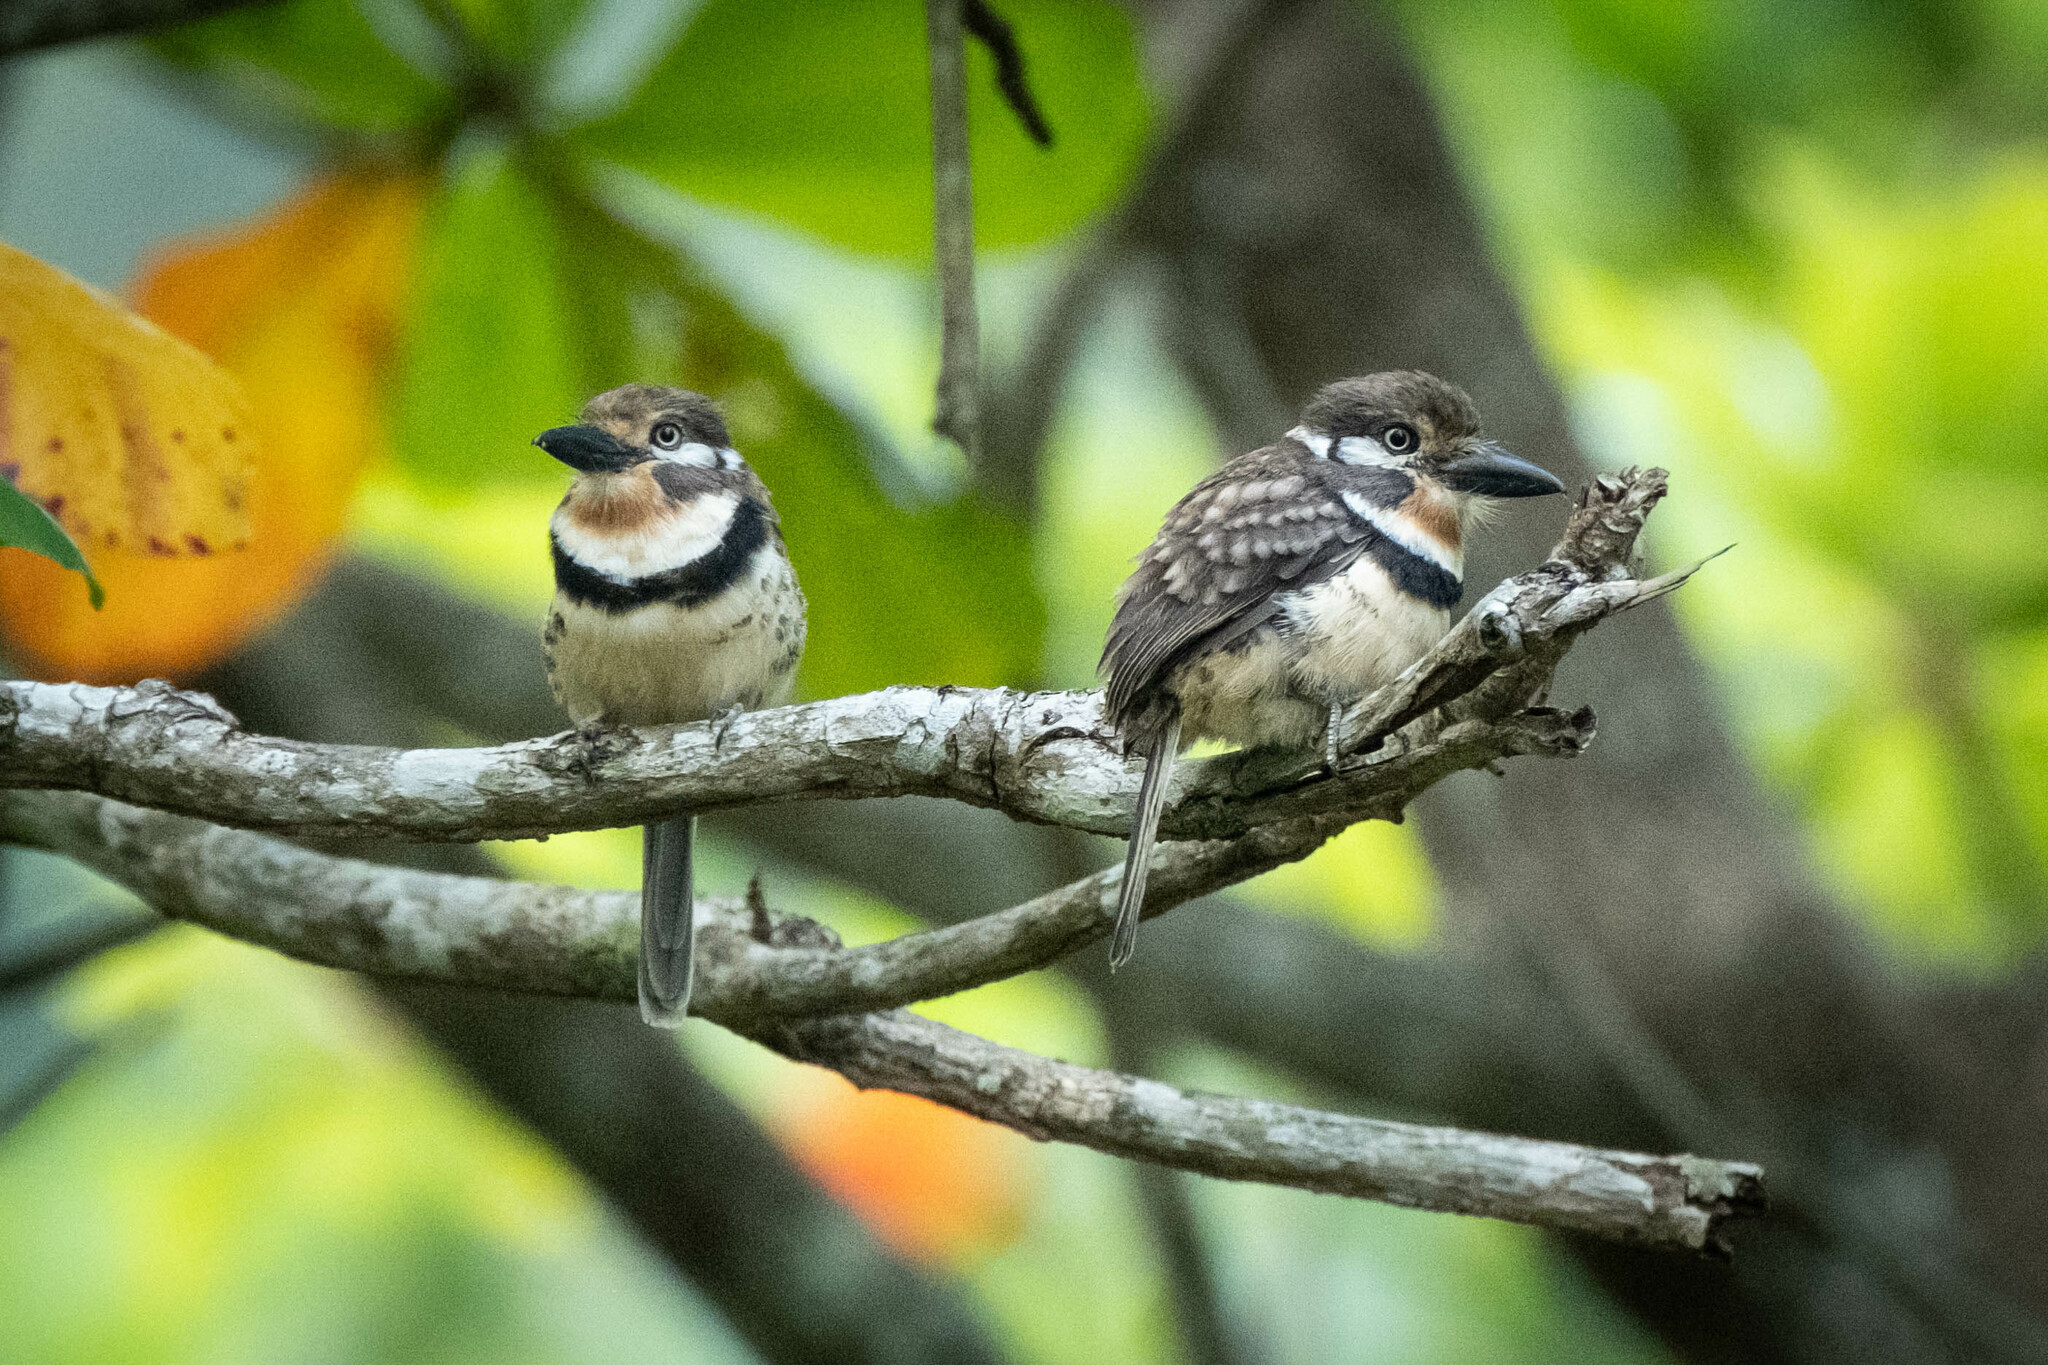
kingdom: Animalia
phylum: Chordata
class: Aves
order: Piciformes
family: Bucconidae
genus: Hypnelus
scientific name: Hypnelus ruficollis
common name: Russet-throated puffbird
